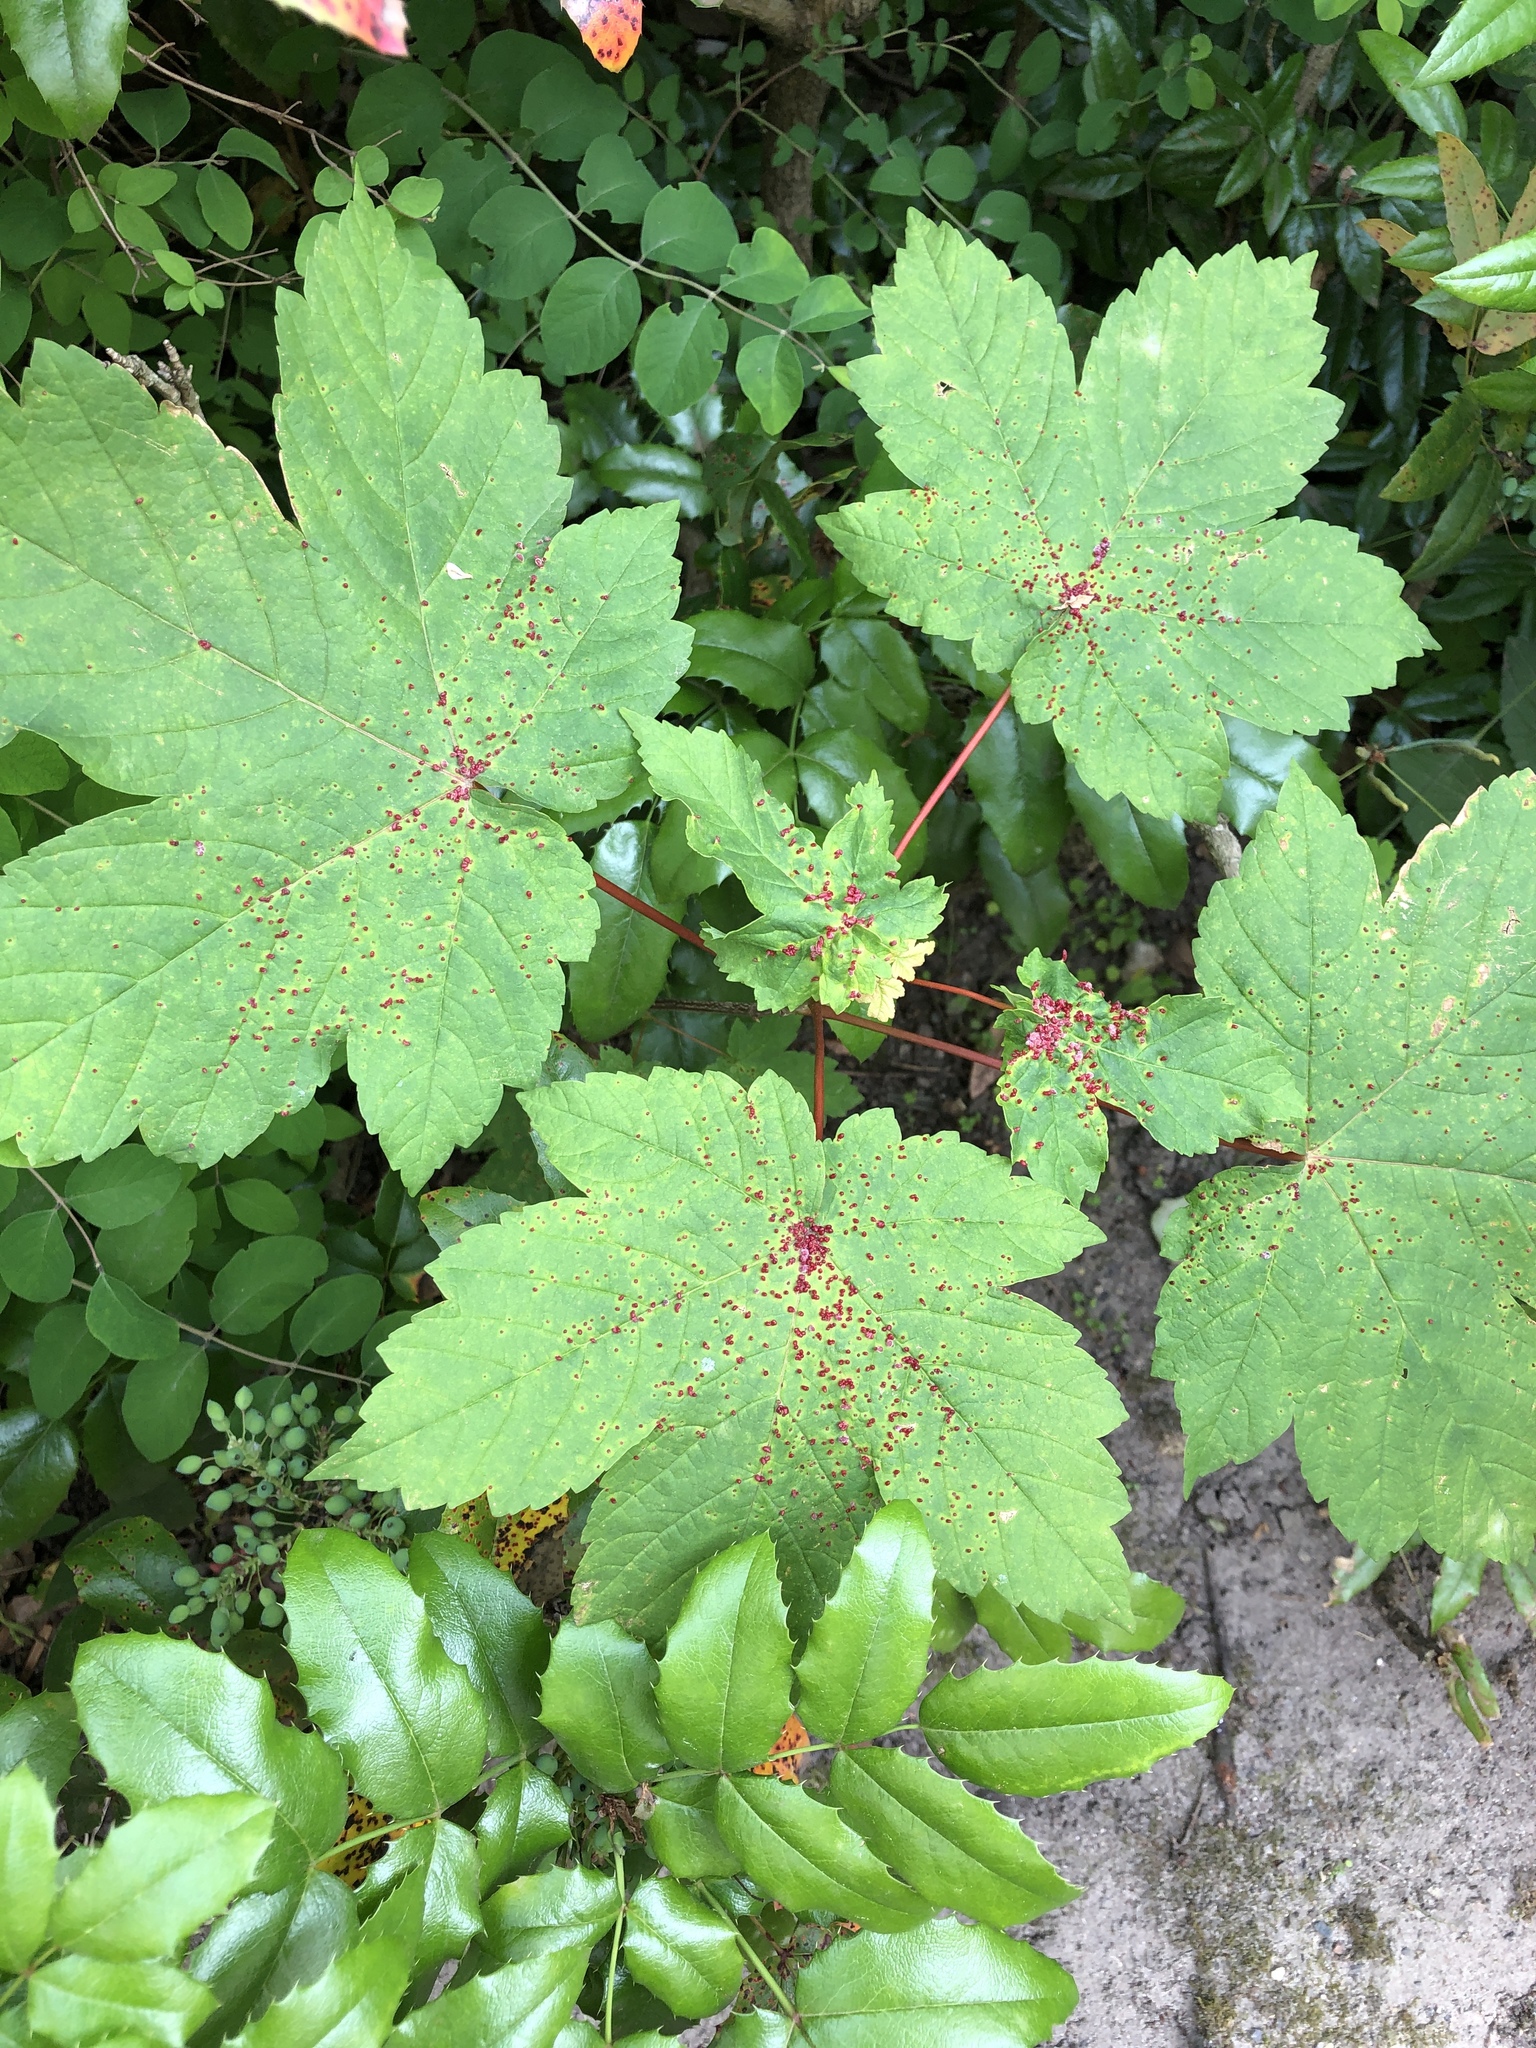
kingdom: Animalia
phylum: Arthropoda
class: Arachnida
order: Trombidiformes
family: Eriophyidae
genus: Aceria
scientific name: Aceria cephaloneus
